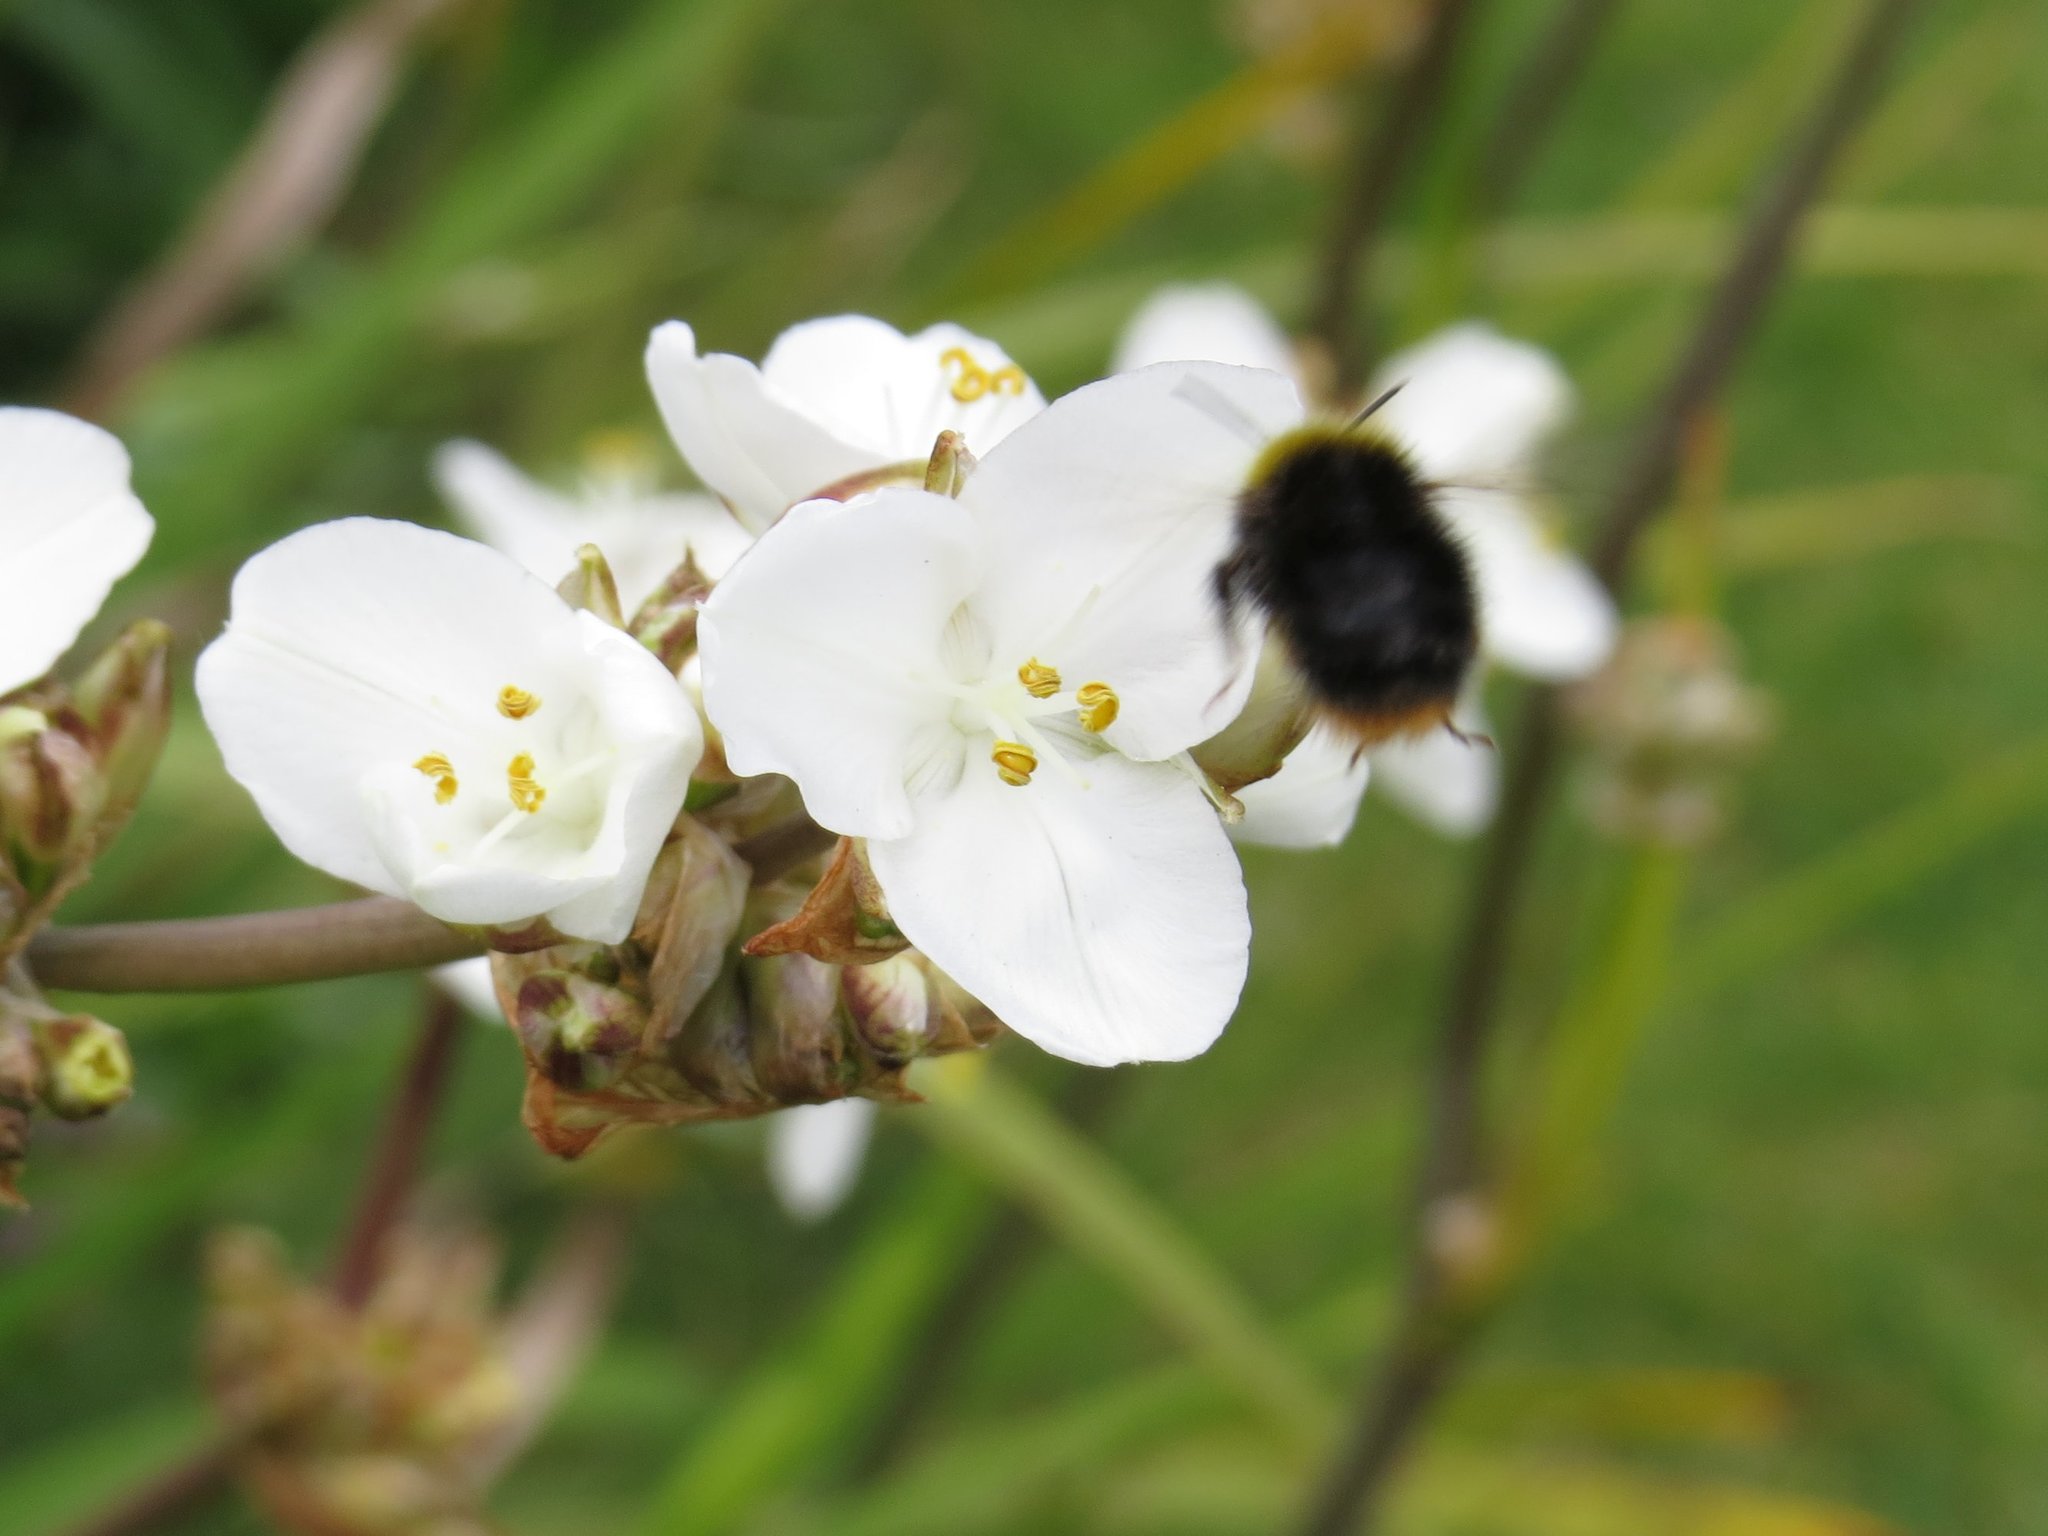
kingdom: Animalia
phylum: Arthropoda
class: Insecta
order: Hymenoptera
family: Apidae
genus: Bombus
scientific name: Bombus pratorum
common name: Early humble-bee
